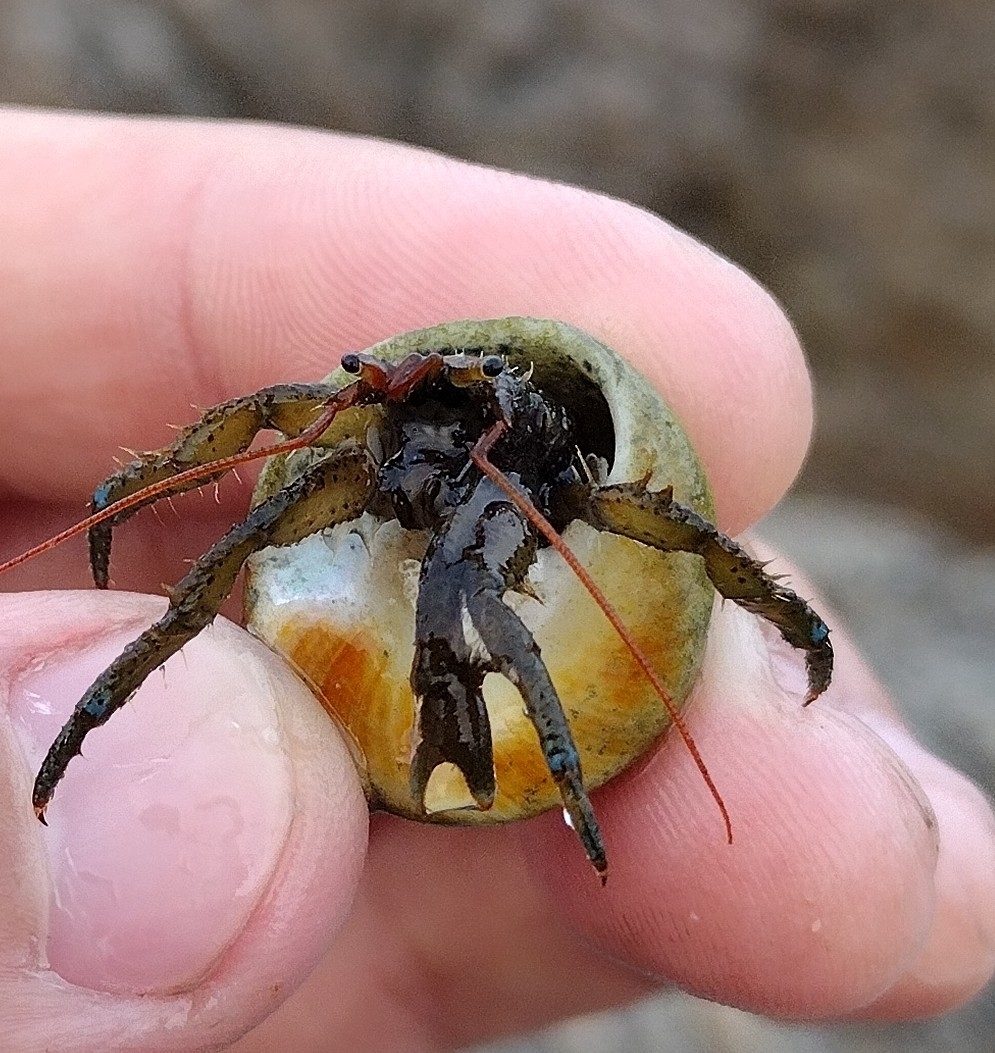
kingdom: Animalia
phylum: Arthropoda
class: Malacostraca
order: Decapoda
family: Paguridae
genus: Pagurus
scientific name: Pagurus samuelis
